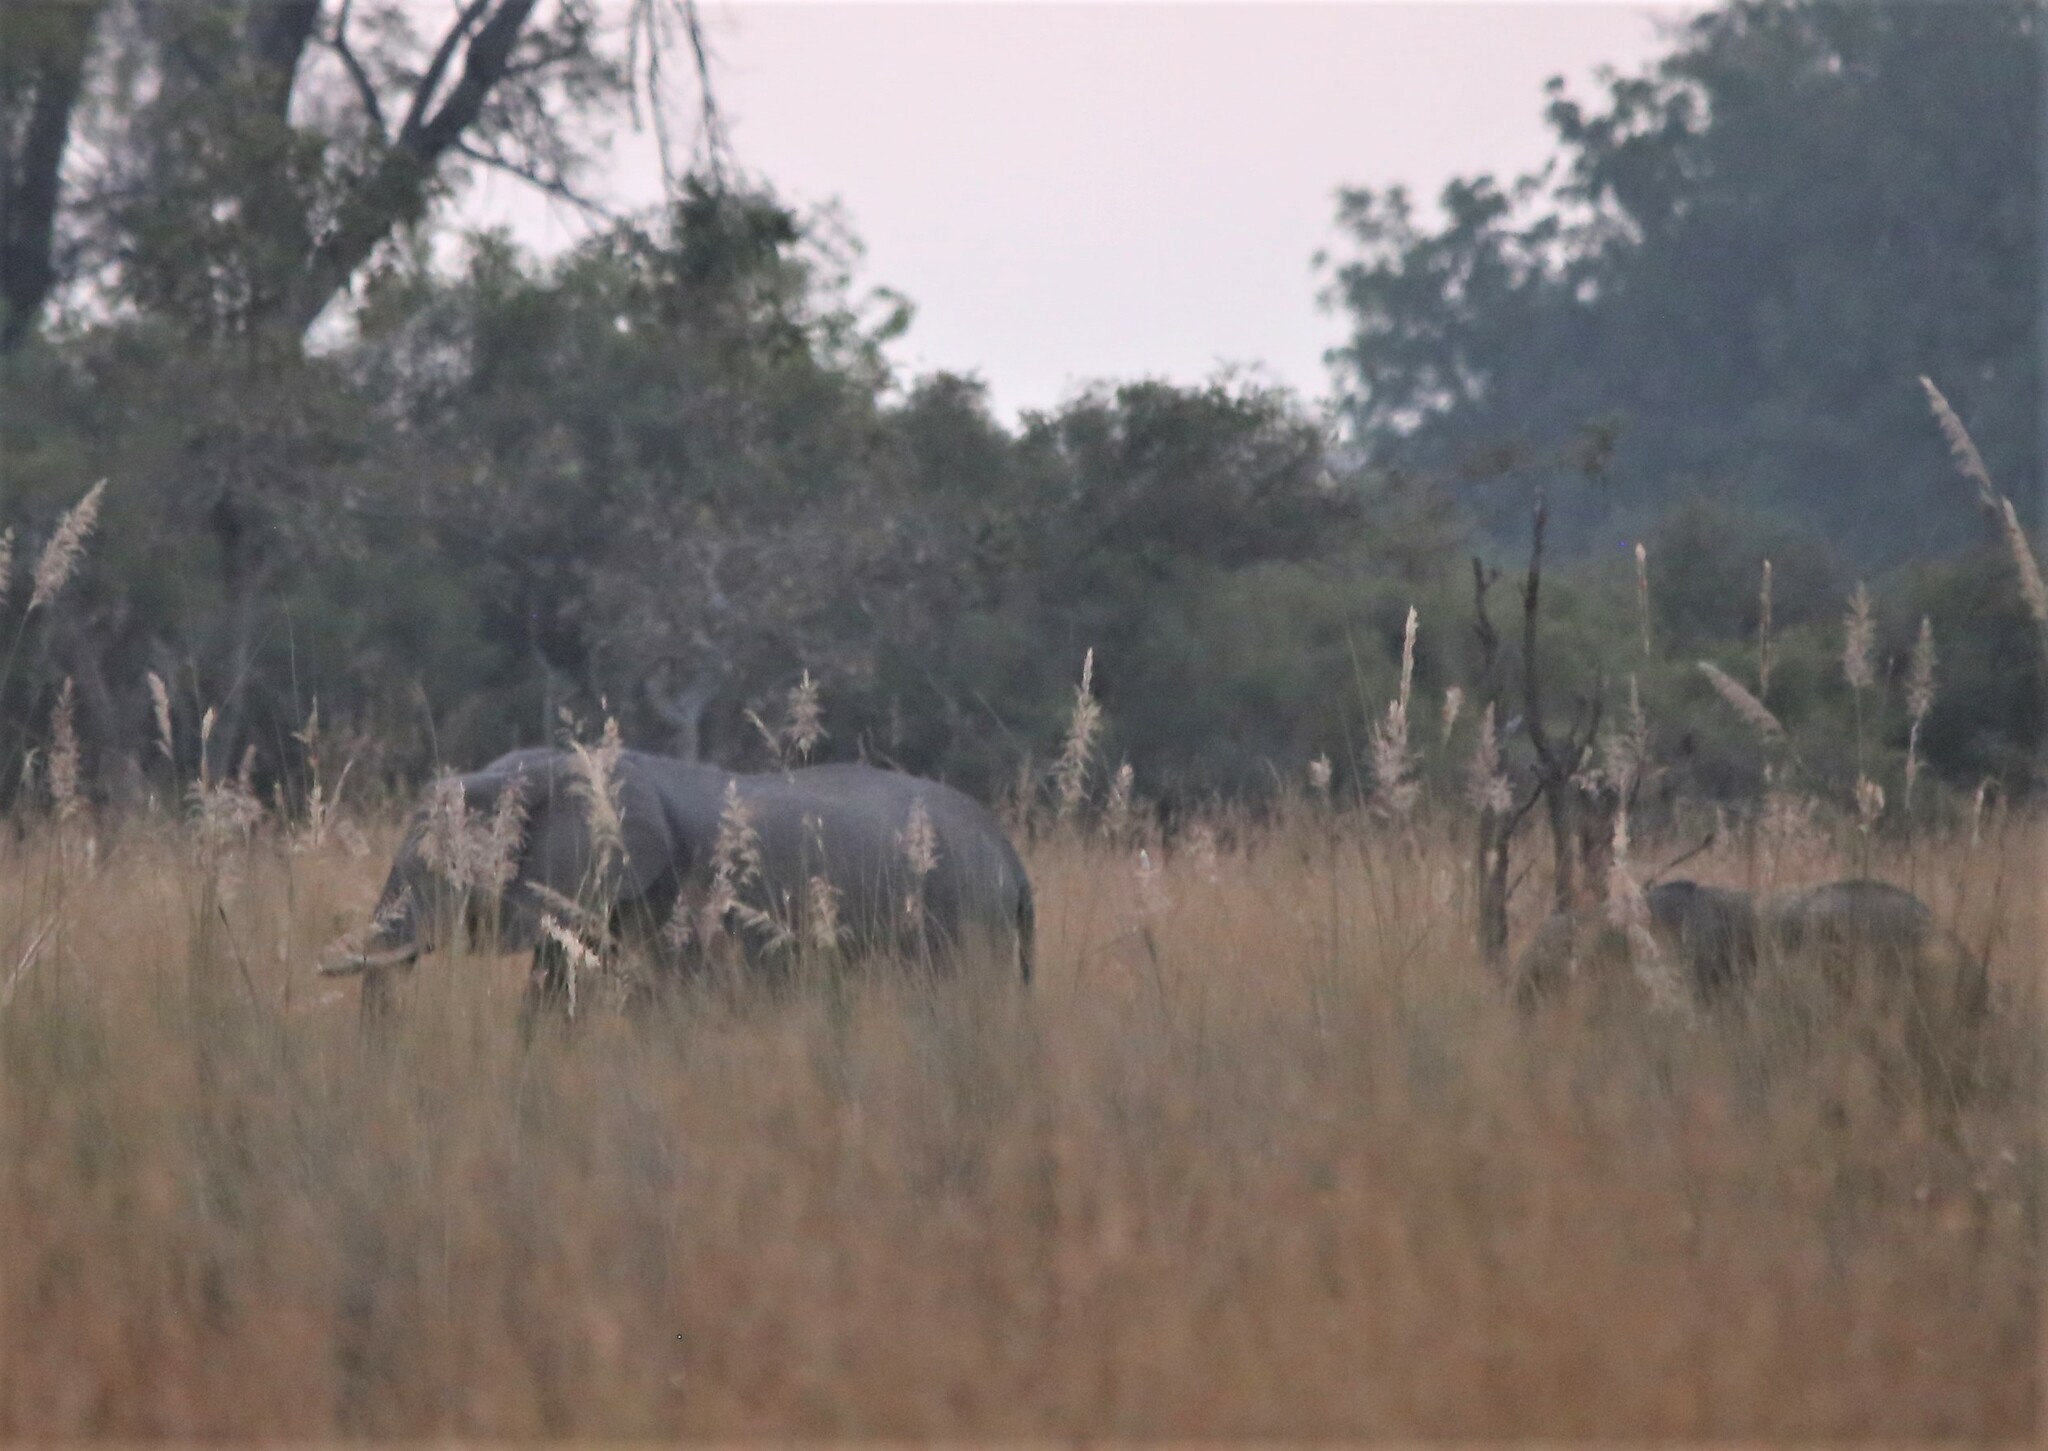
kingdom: Animalia
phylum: Chordata
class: Mammalia
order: Proboscidea
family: Elephantidae
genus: Loxodonta
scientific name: Loxodonta africana
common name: African elephant
